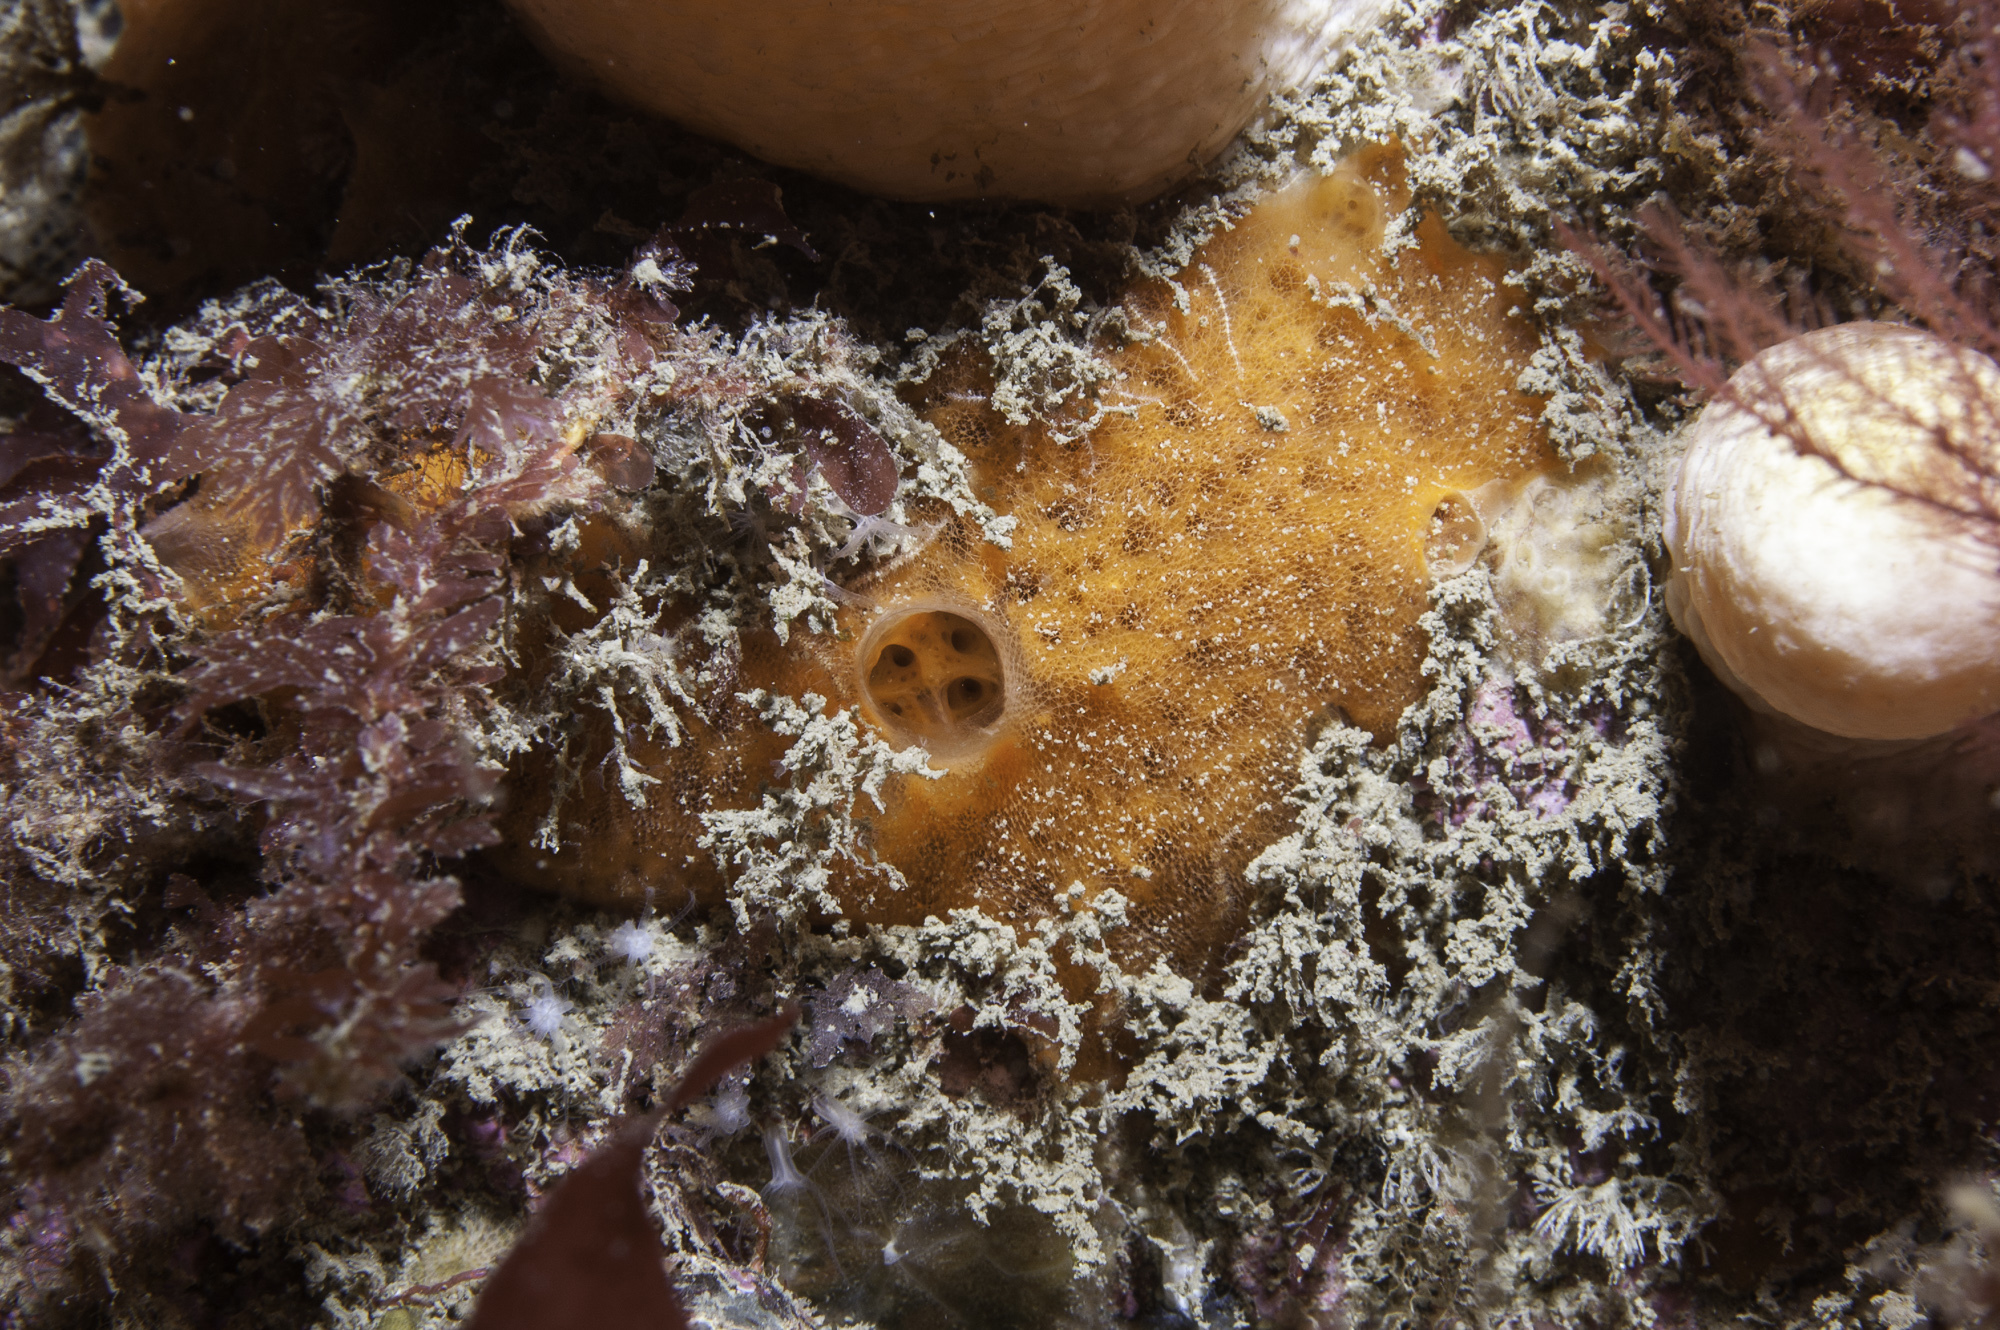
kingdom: Animalia
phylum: Porifera
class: Demospongiae
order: Poecilosclerida
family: Mycalidae
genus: Mycale
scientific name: Mycale rotalis
